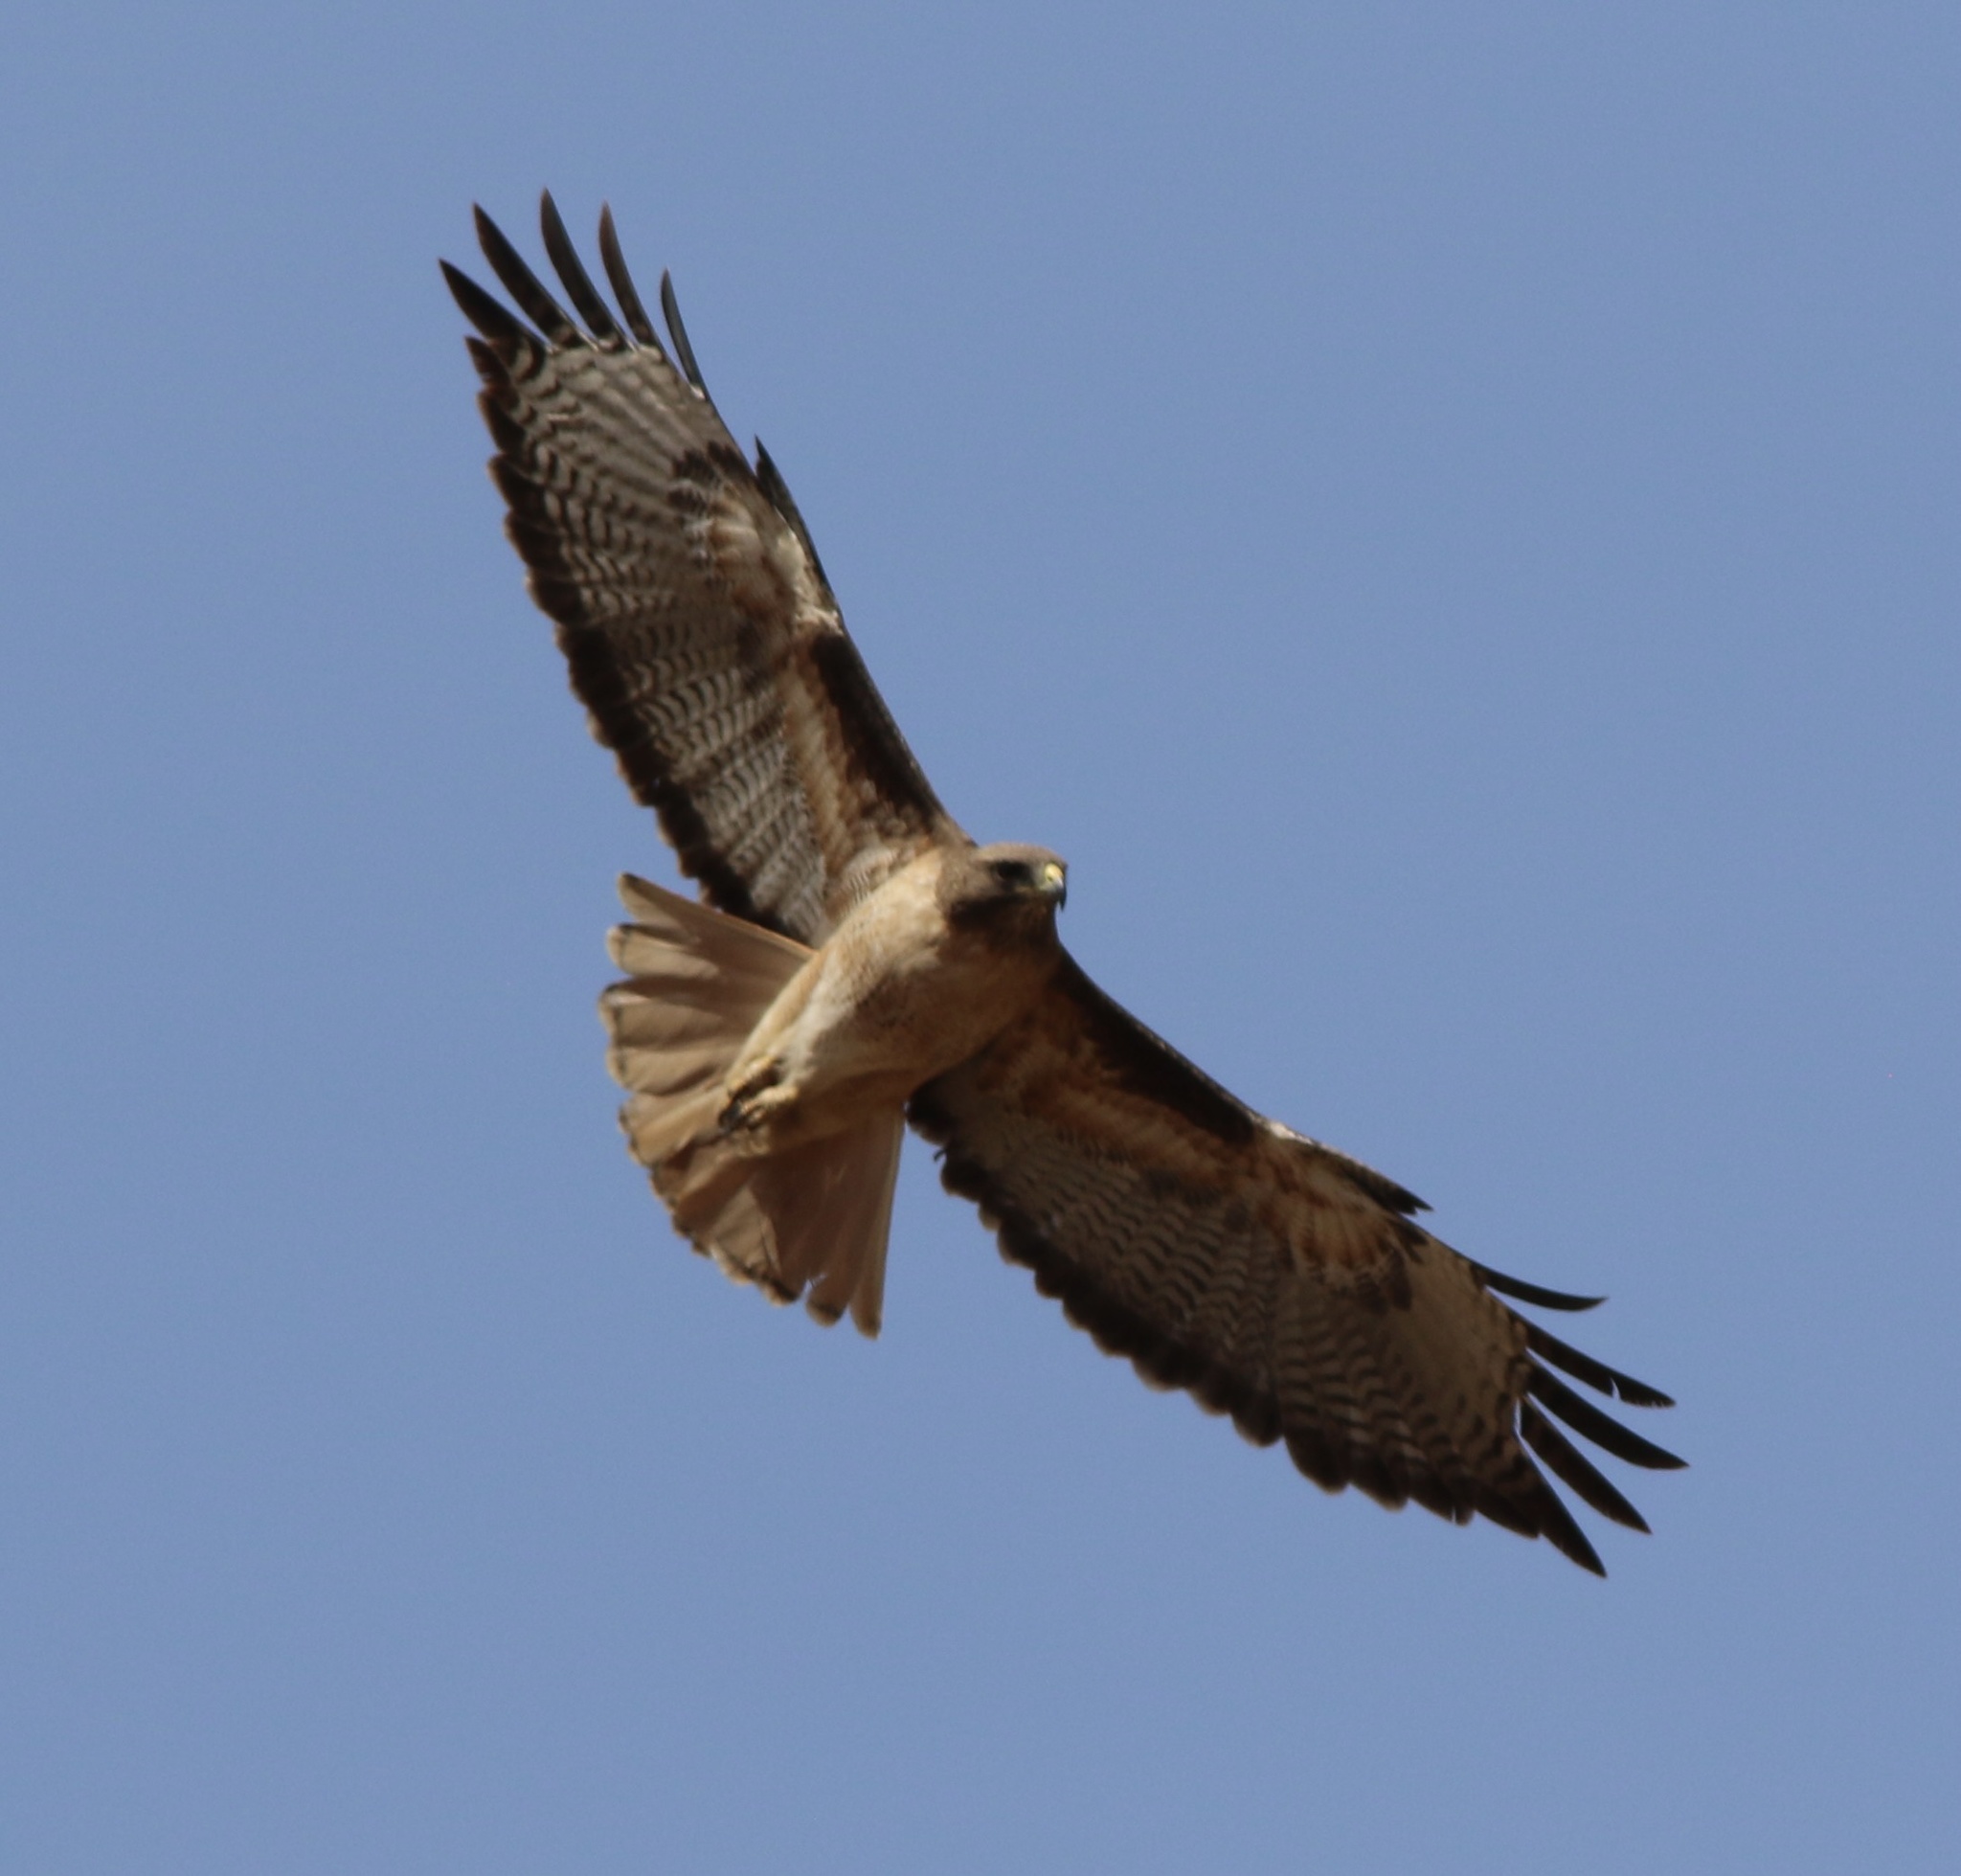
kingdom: Animalia
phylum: Chordata
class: Aves
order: Accipitriformes
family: Accipitridae
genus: Buteo
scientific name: Buteo jamaicensis
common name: Red-tailed hawk
